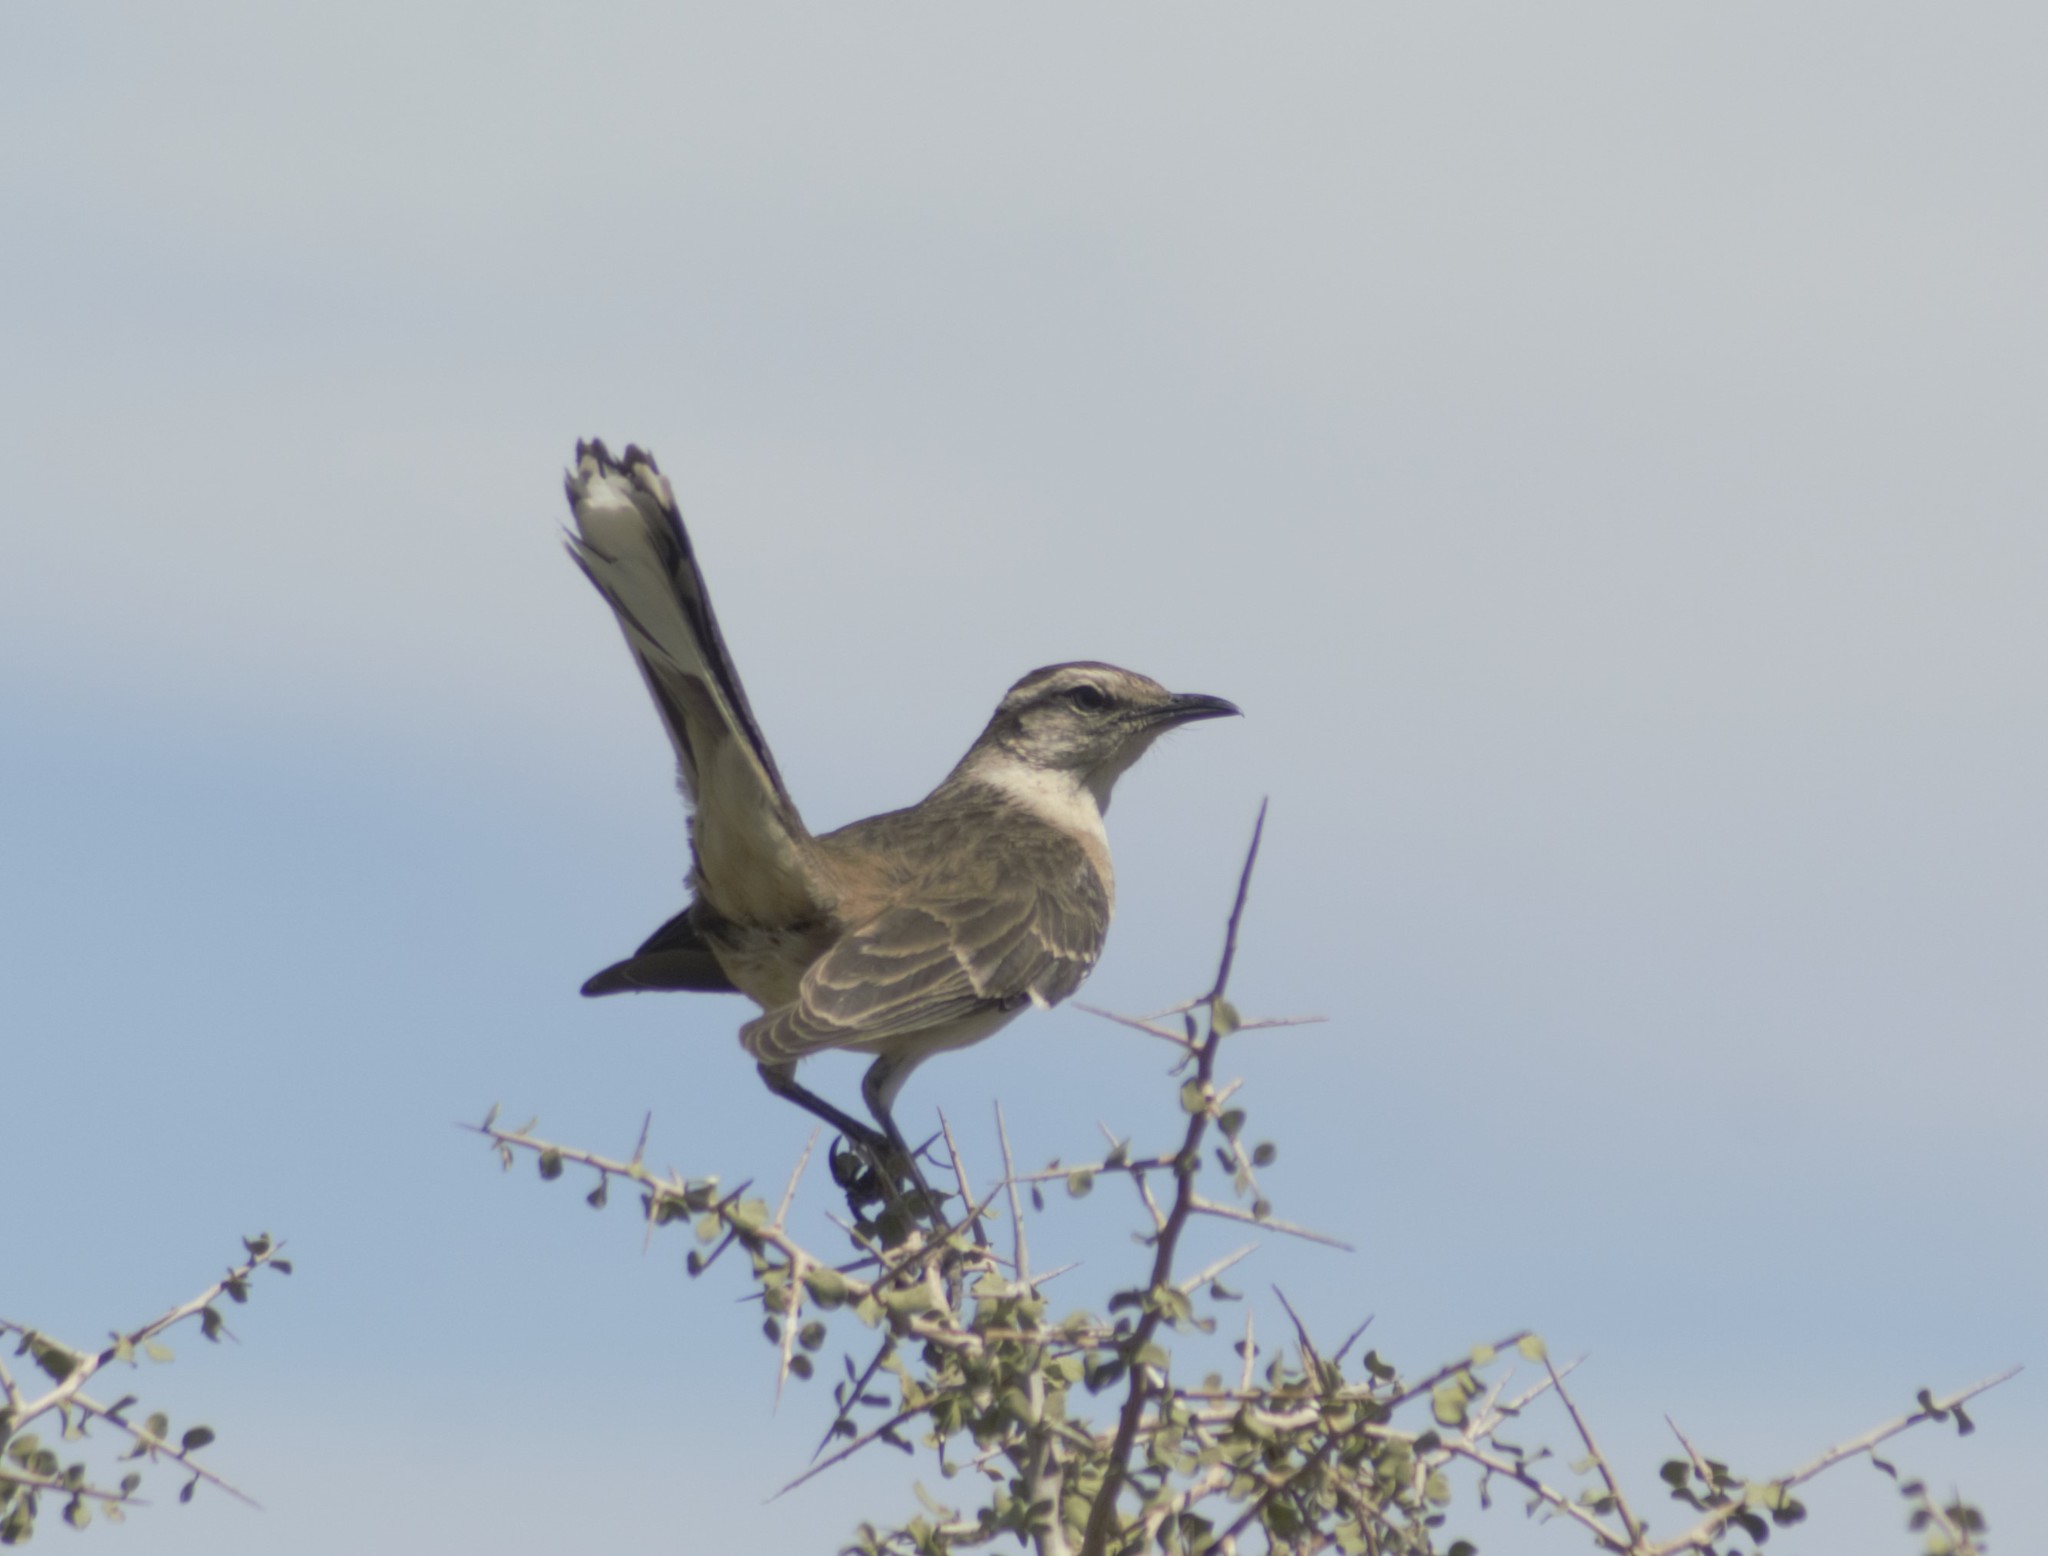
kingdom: Animalia
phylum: Chordata
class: Aves
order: Passeriformes
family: Mimidae
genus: Mimus
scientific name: Mimus saturninus
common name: Chalk-browed mockingbird
